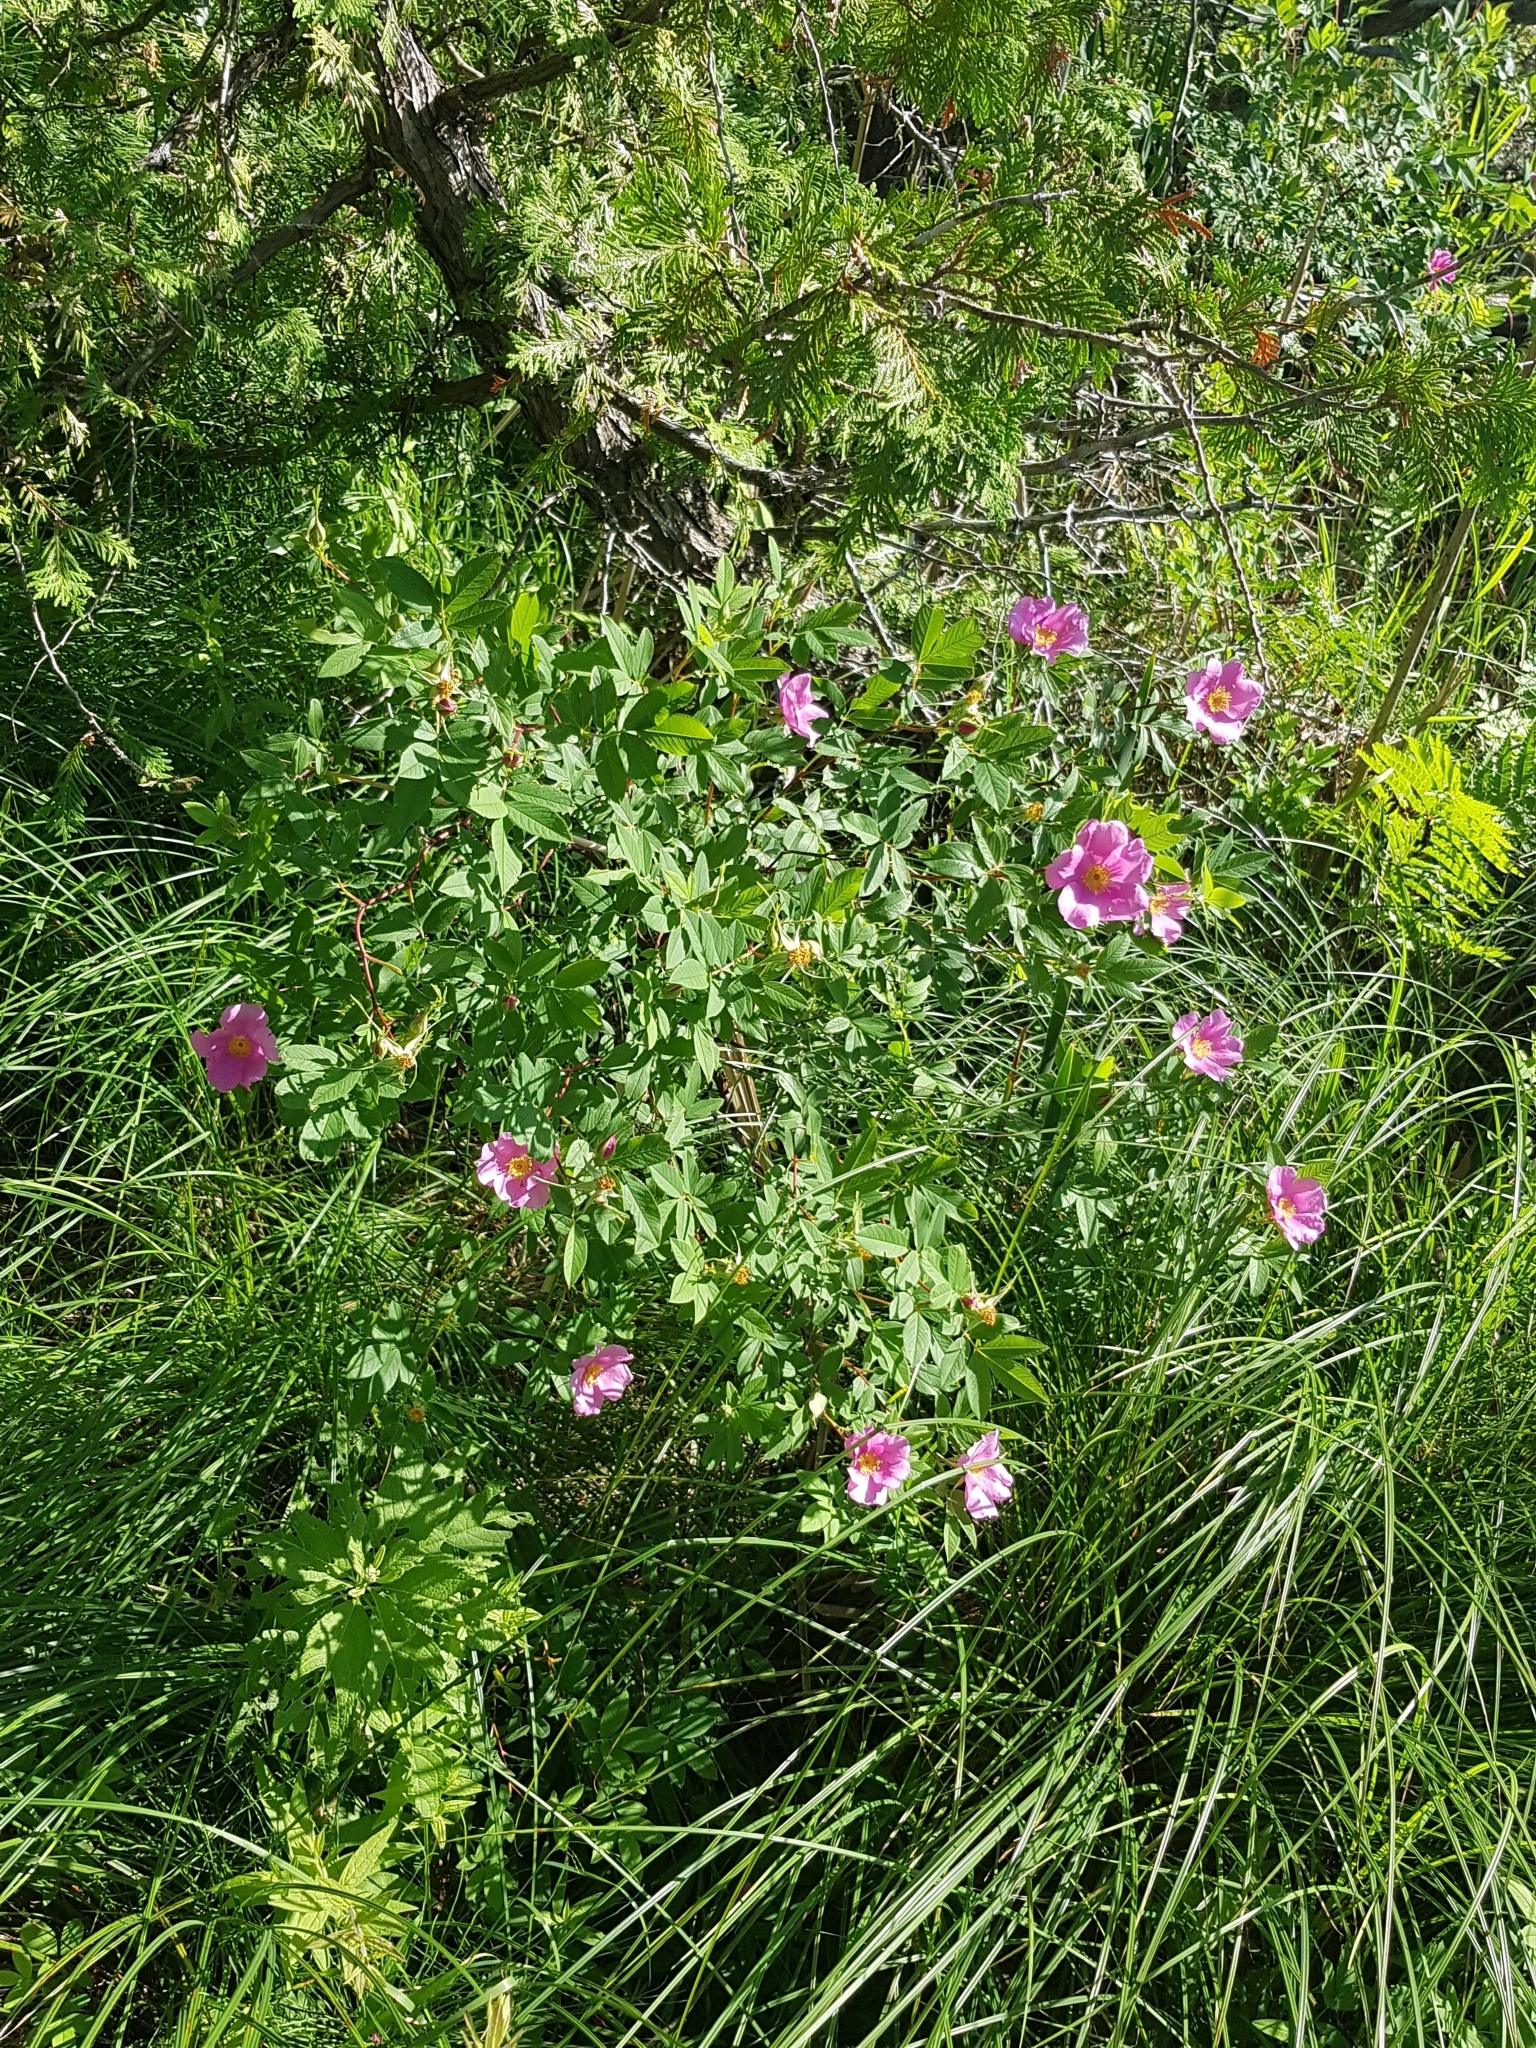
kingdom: Plantae
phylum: Tracheophyta
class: Magnoliopsida
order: Rosales
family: Rosaceae
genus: Rosa
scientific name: Rosa palustris
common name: Swamp rose
